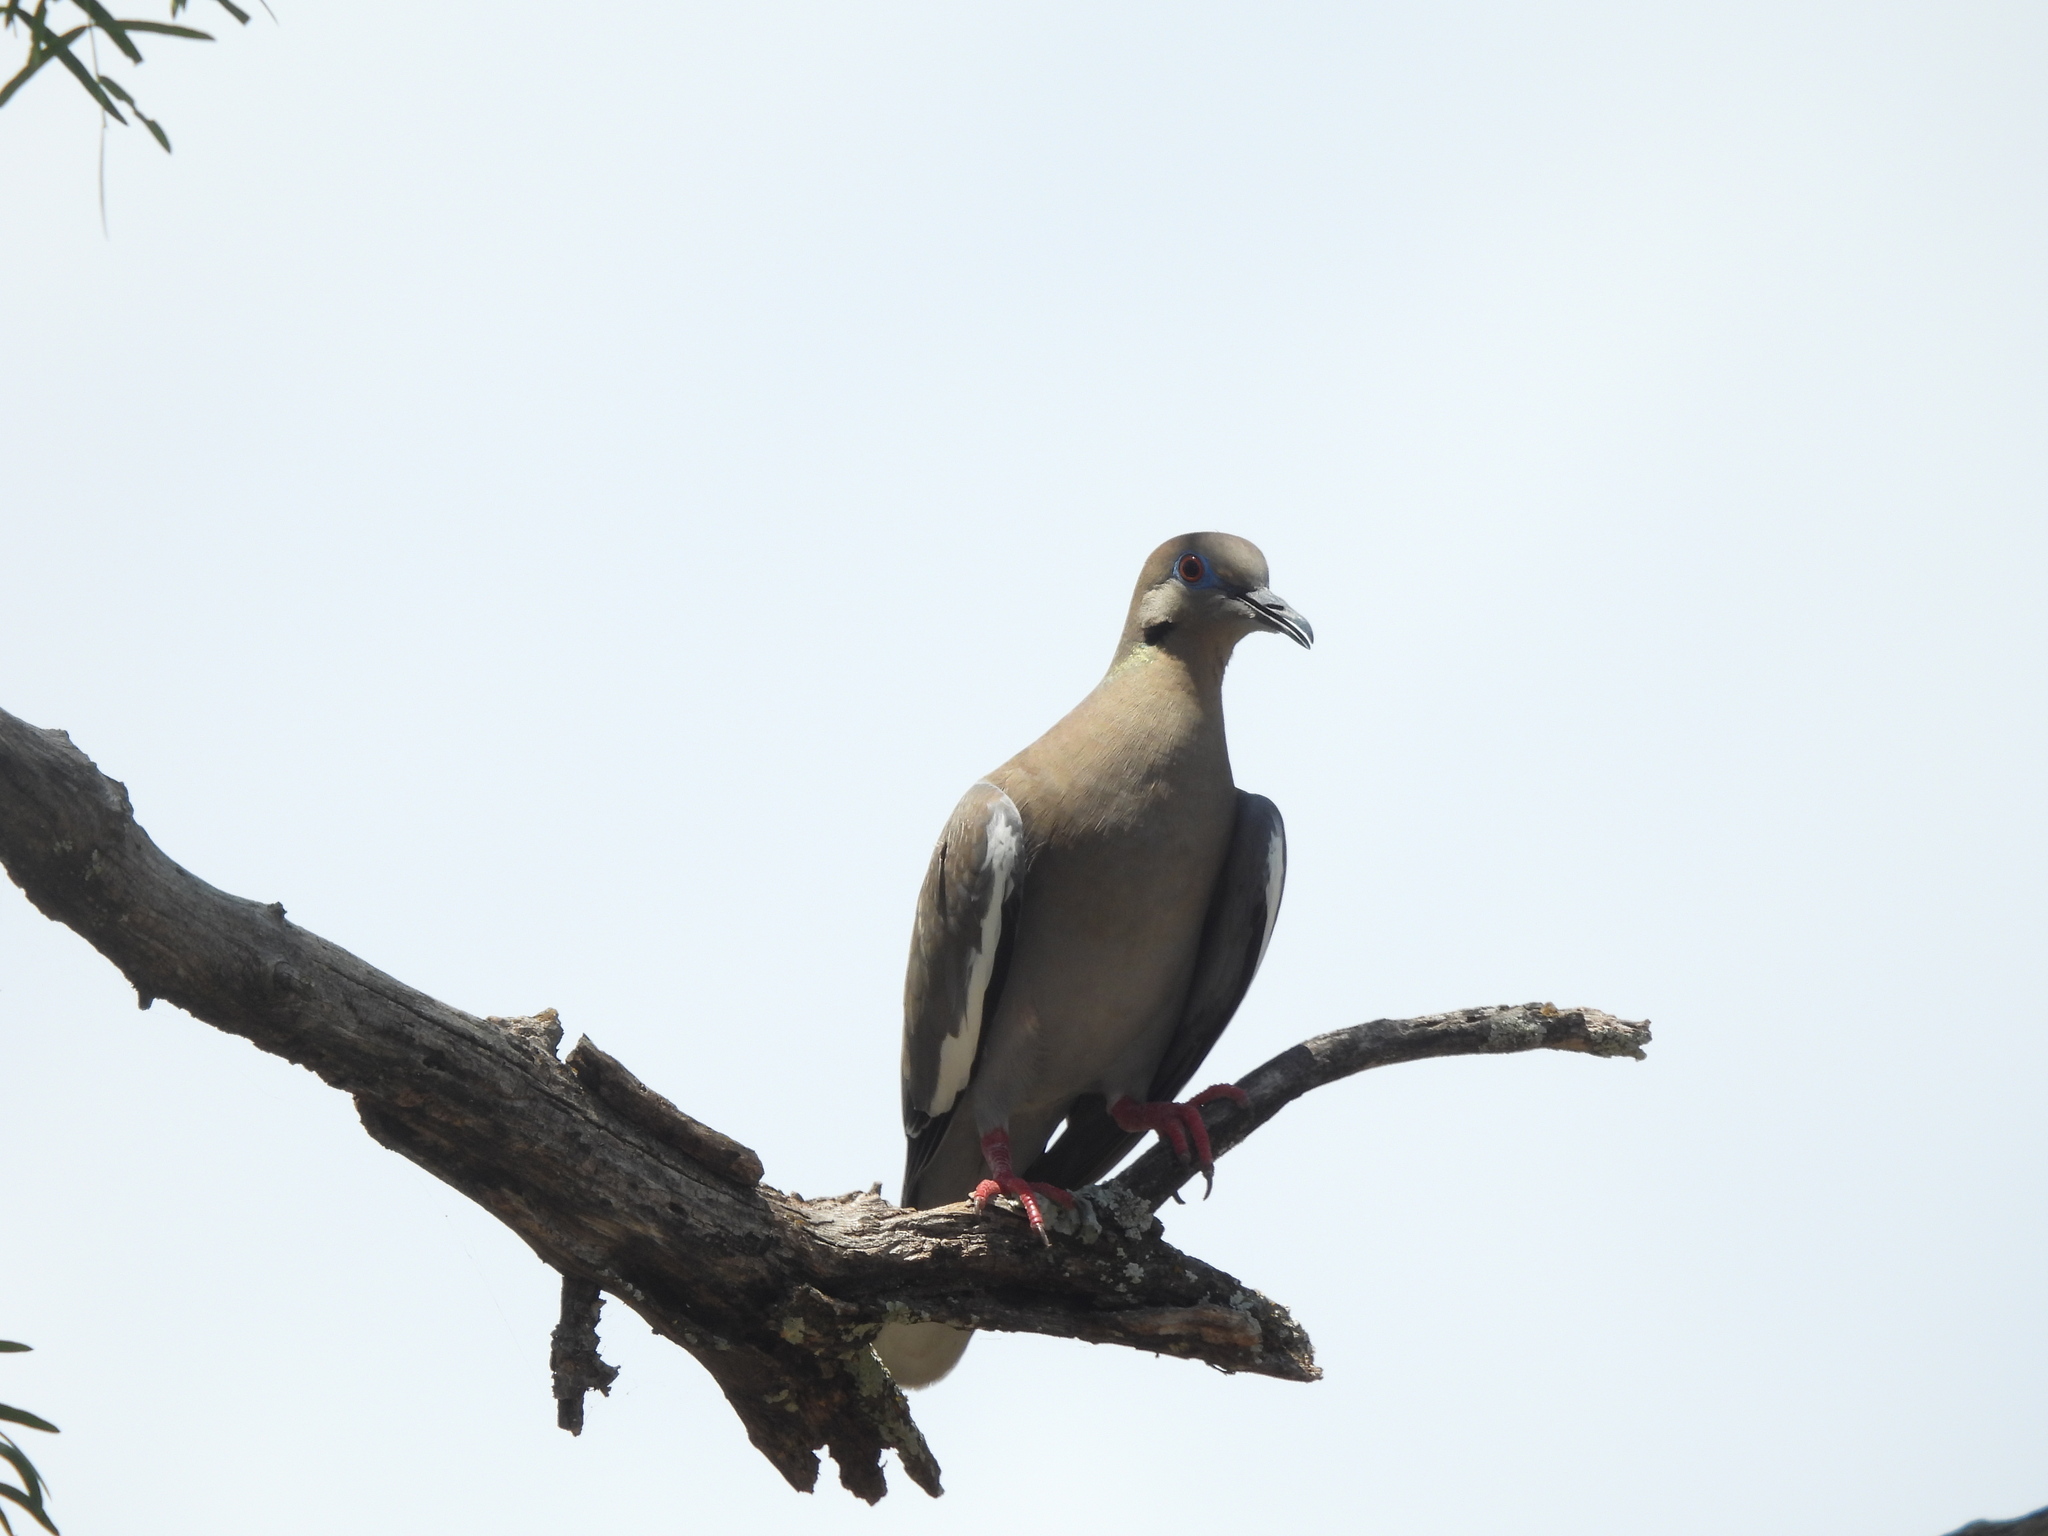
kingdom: Animalia
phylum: Chordata
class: Aves
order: Columbiformes
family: Columbidae
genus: Zenaida
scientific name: Zenaida asiatica
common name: White-winged dove
